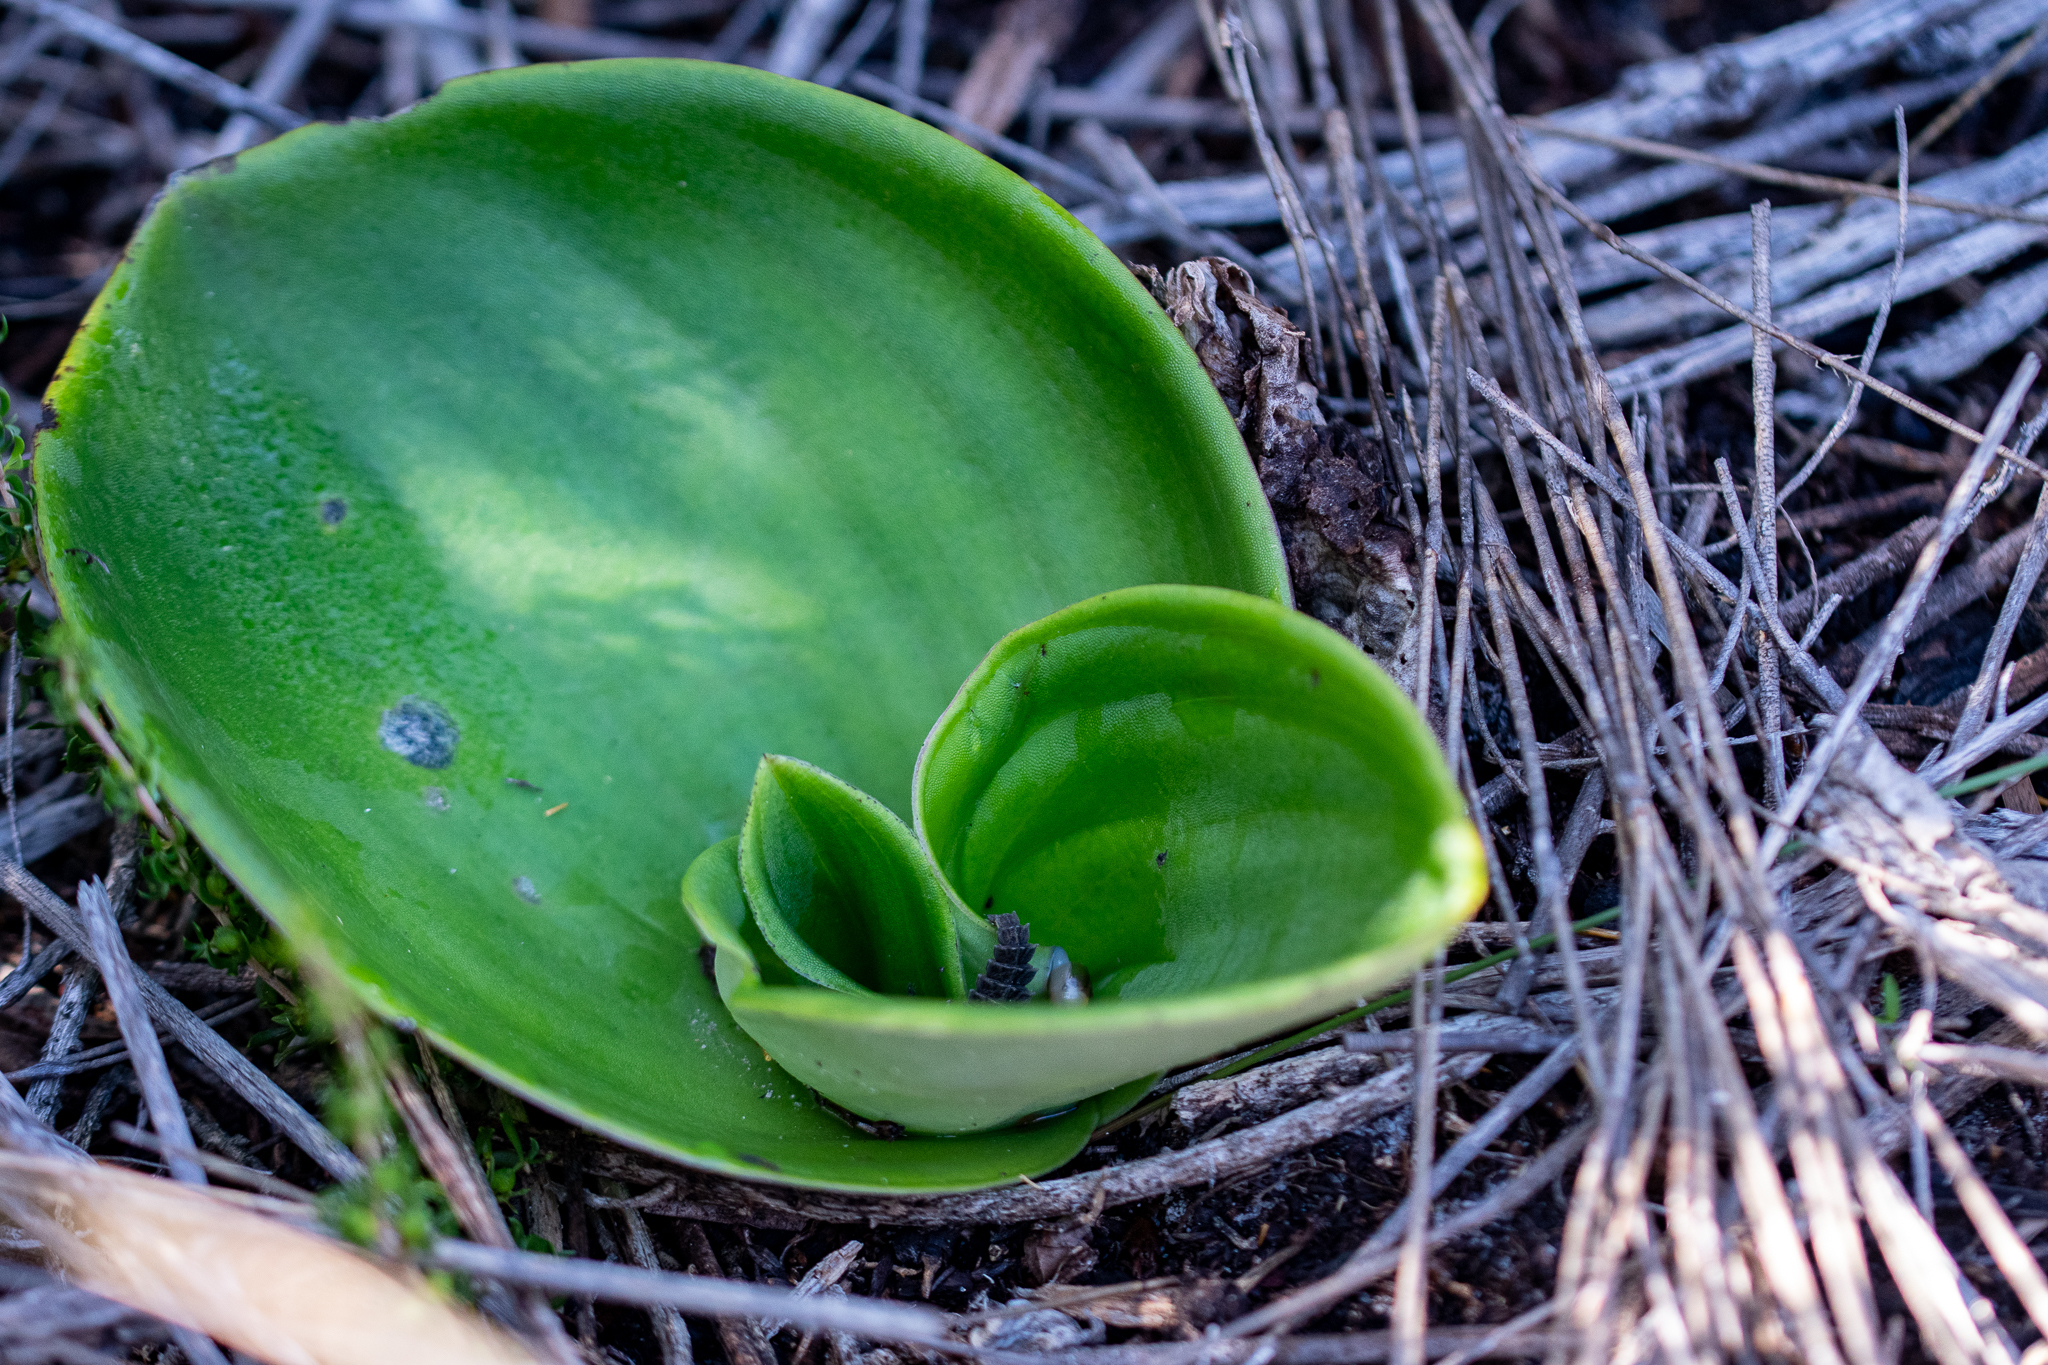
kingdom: Plantae
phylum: Tracheophyta
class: Liliopsida
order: Asparagales
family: Orchidaceae
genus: Satyrium
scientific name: Satyrium carneum
